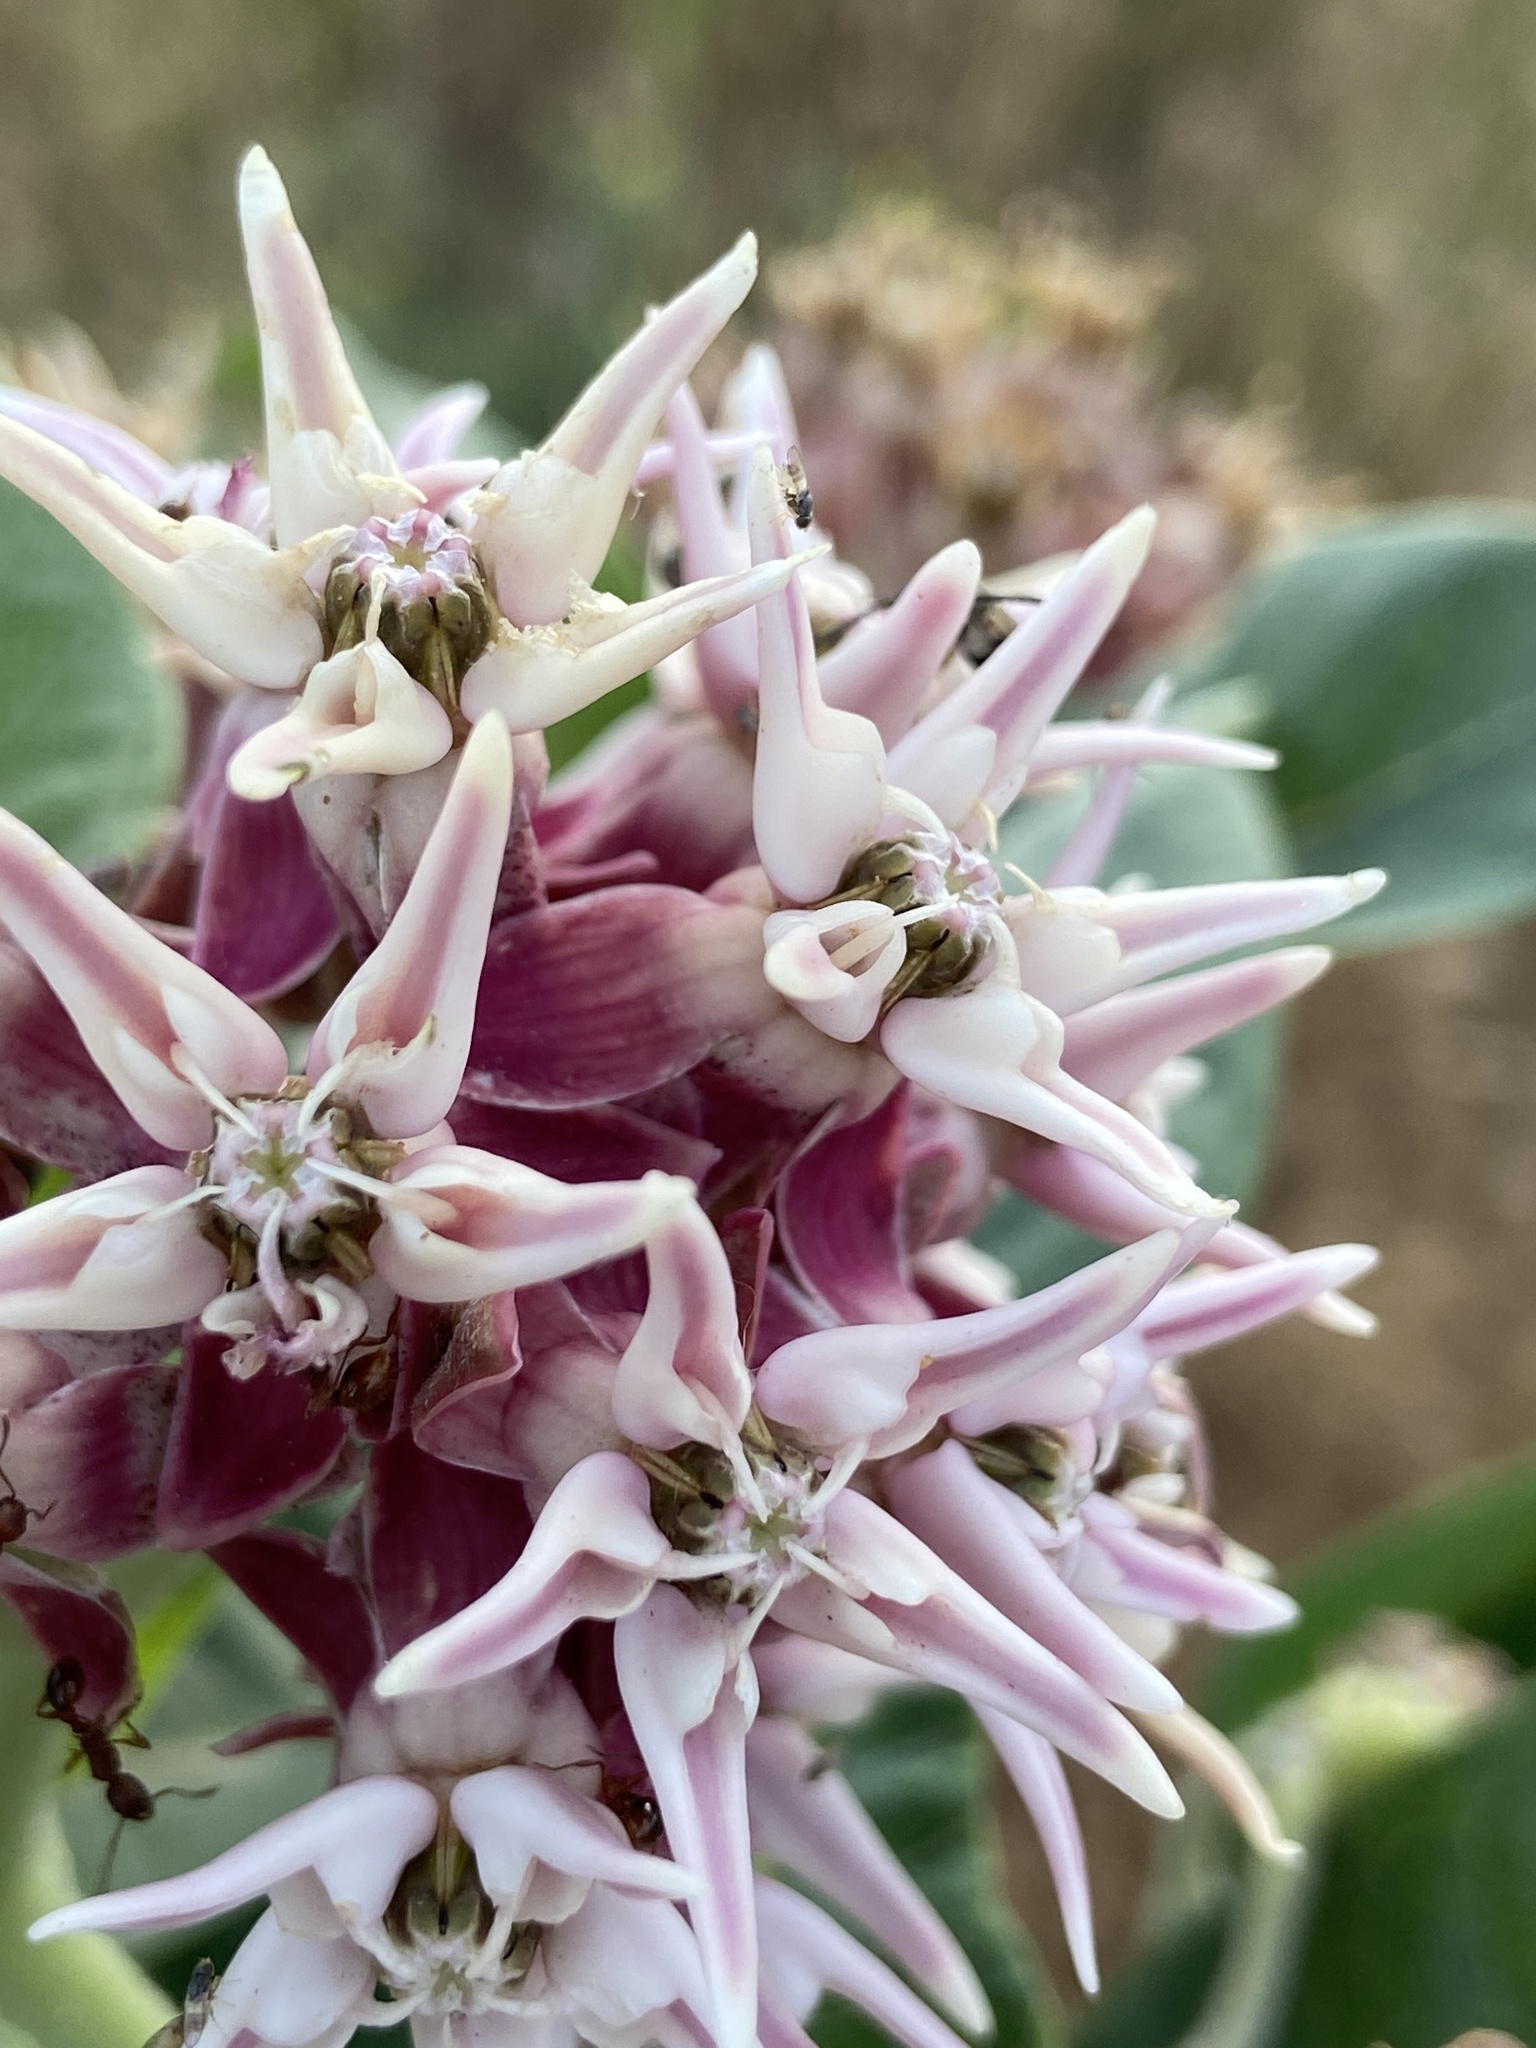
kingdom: Plantae
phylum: Tracheophyta
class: Magnoliopsida
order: Gentianales
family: Apocynaceae
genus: Asclepias
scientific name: Asclepias speciosa
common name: Showy milkweed
